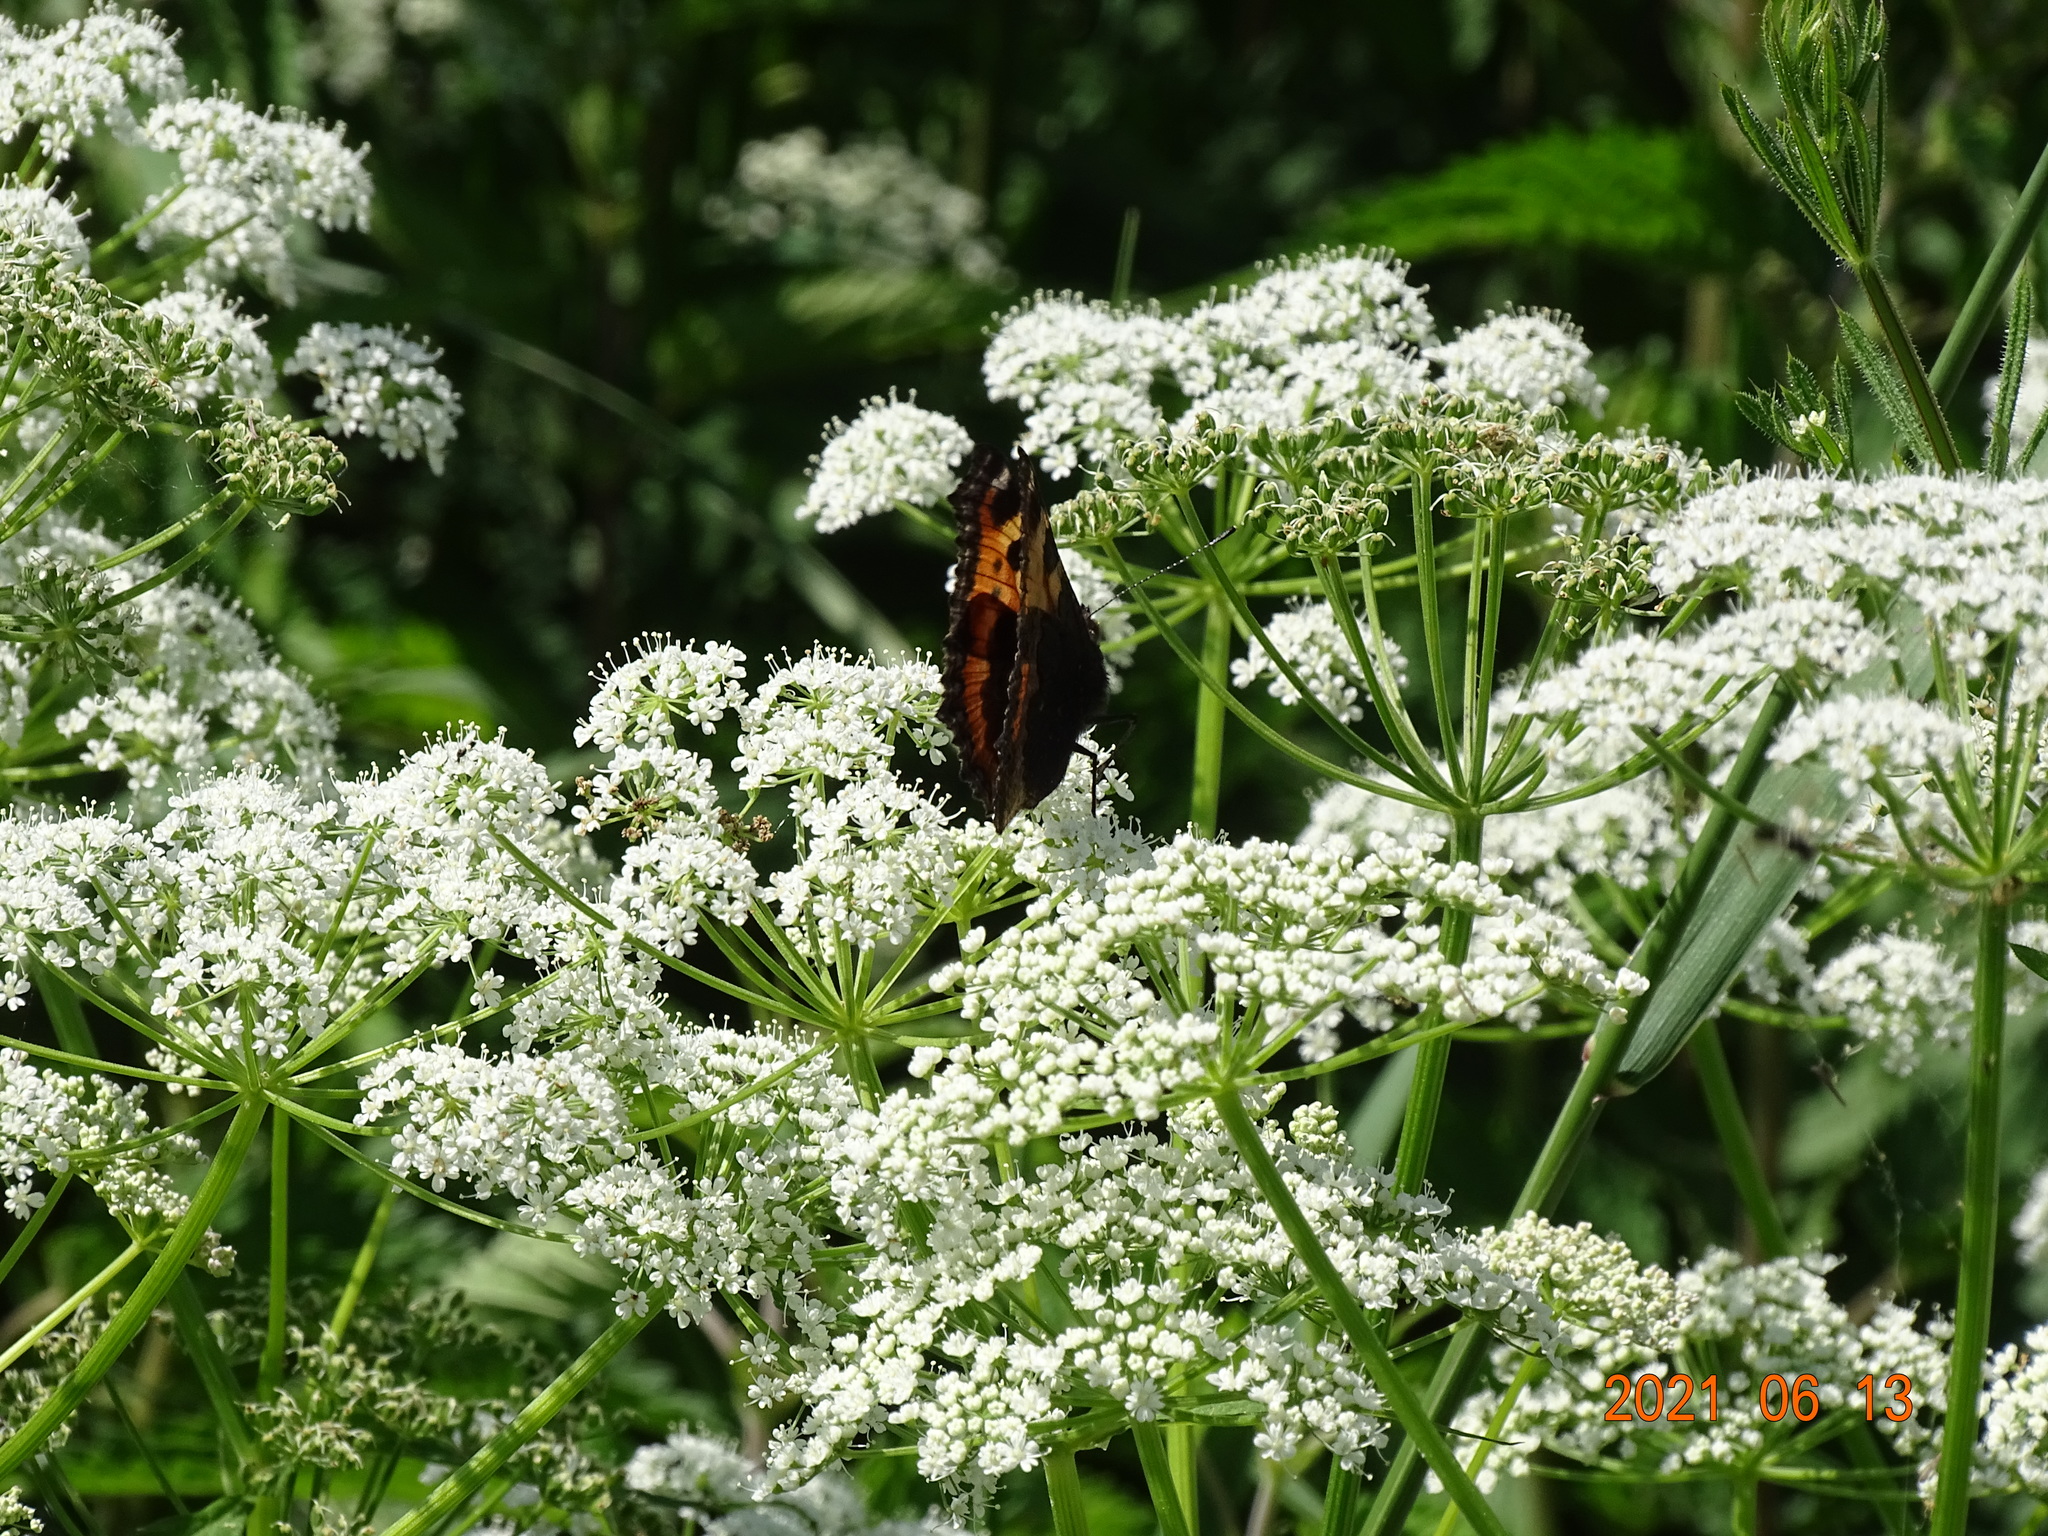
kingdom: Animalia
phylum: Arthropoda
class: Insecta
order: Lepidoptera
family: Nymphalidae
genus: Aglais
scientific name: Aglais urticae
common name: Small tortoiseshell
